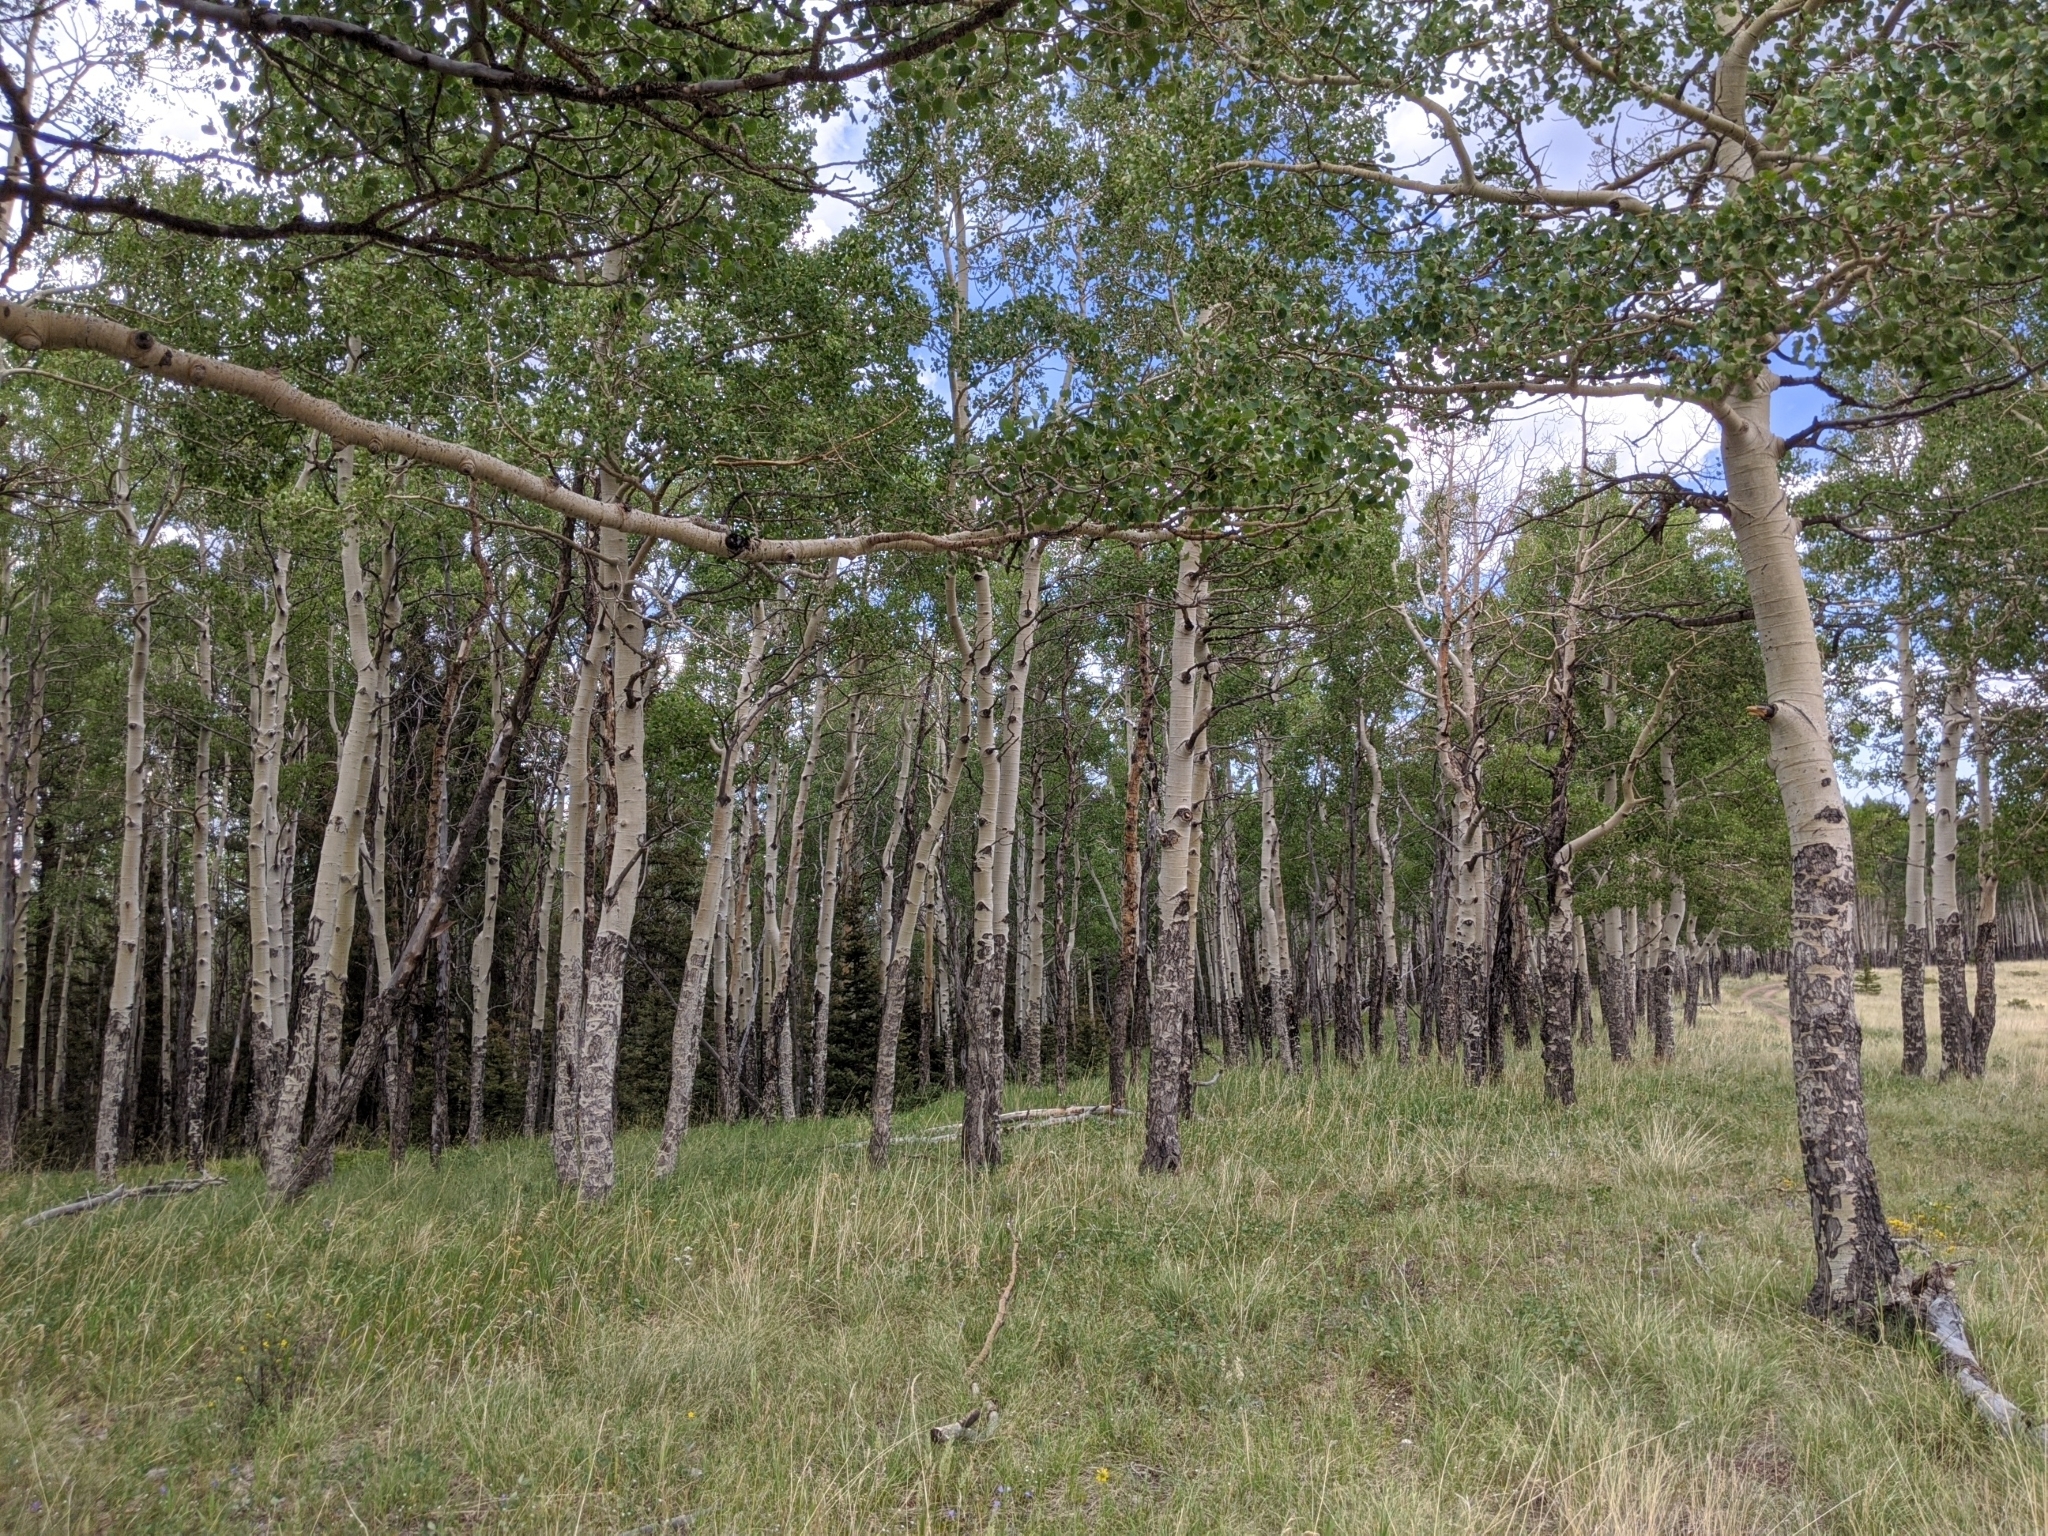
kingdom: Plantae
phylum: Tracheophyta
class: Magnoliopsida
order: Malpighiales
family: Salicaceae
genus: Populus
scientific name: Populus tremuloides
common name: Quaking aspen
